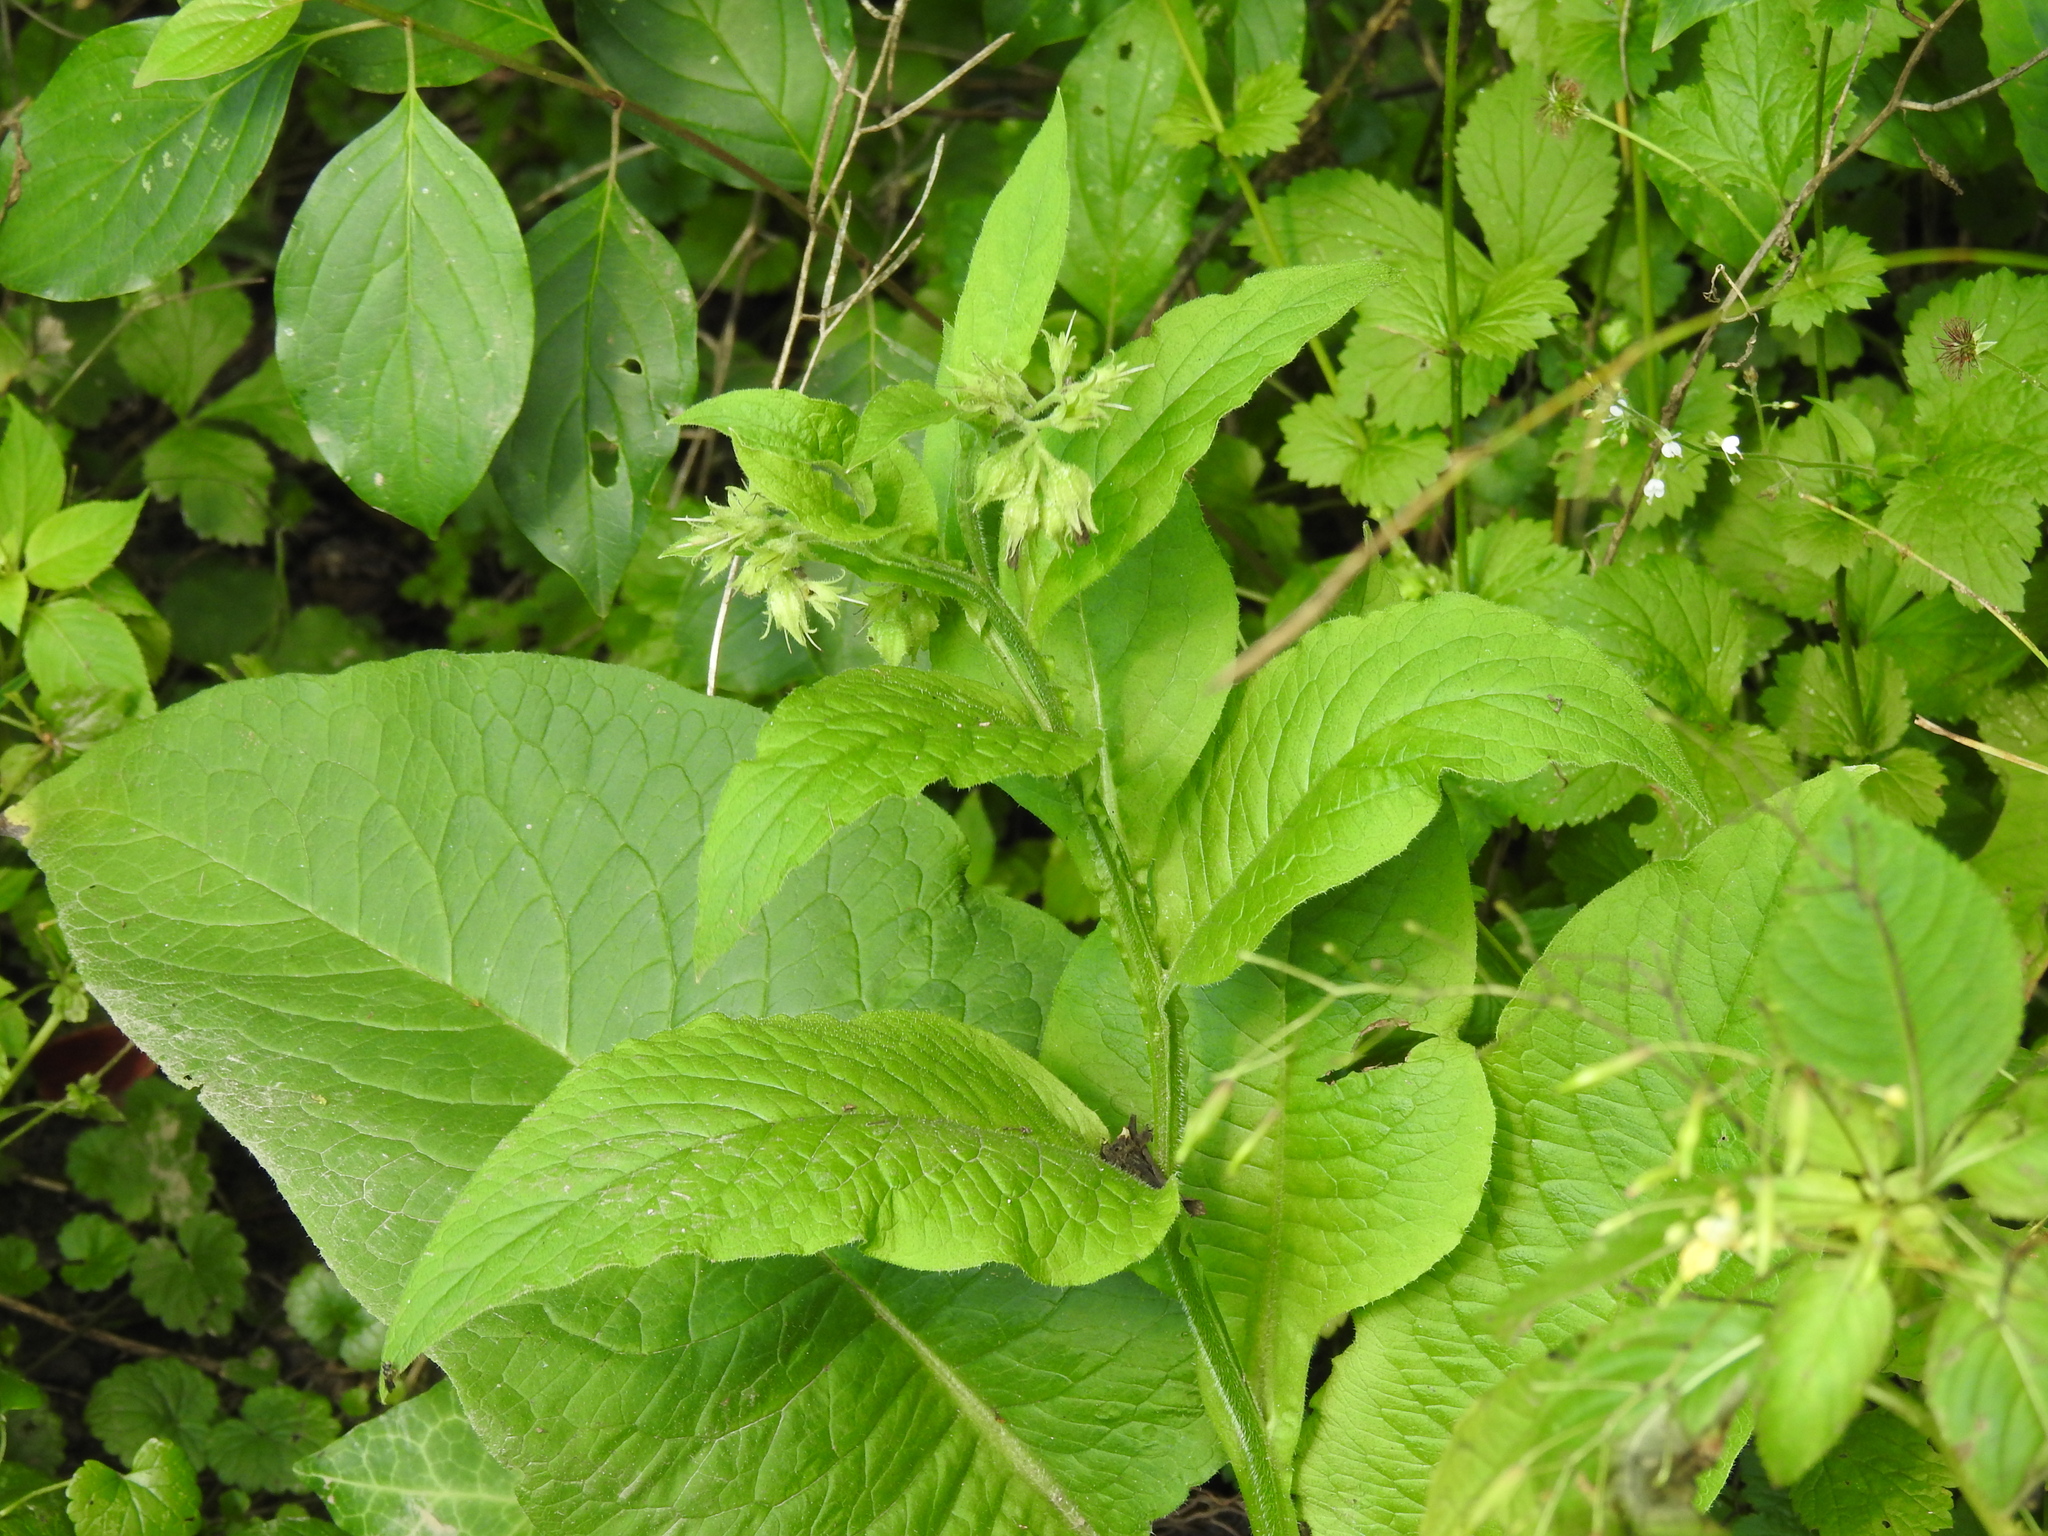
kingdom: Plantae
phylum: Tracheophyta
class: Magnoliopsida
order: Boraginales
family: Boraginaceae
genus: Symphytum
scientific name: Symphytum officinale
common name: Common comfrey
